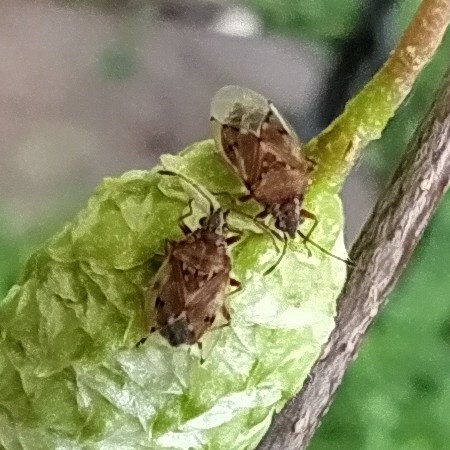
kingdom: Animalia
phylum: Arthropoda
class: Insecta
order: Hemiptera
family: Lygaeidae
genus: Kleidocerys
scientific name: Kleidocerys resedae
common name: Birch catkin bug
